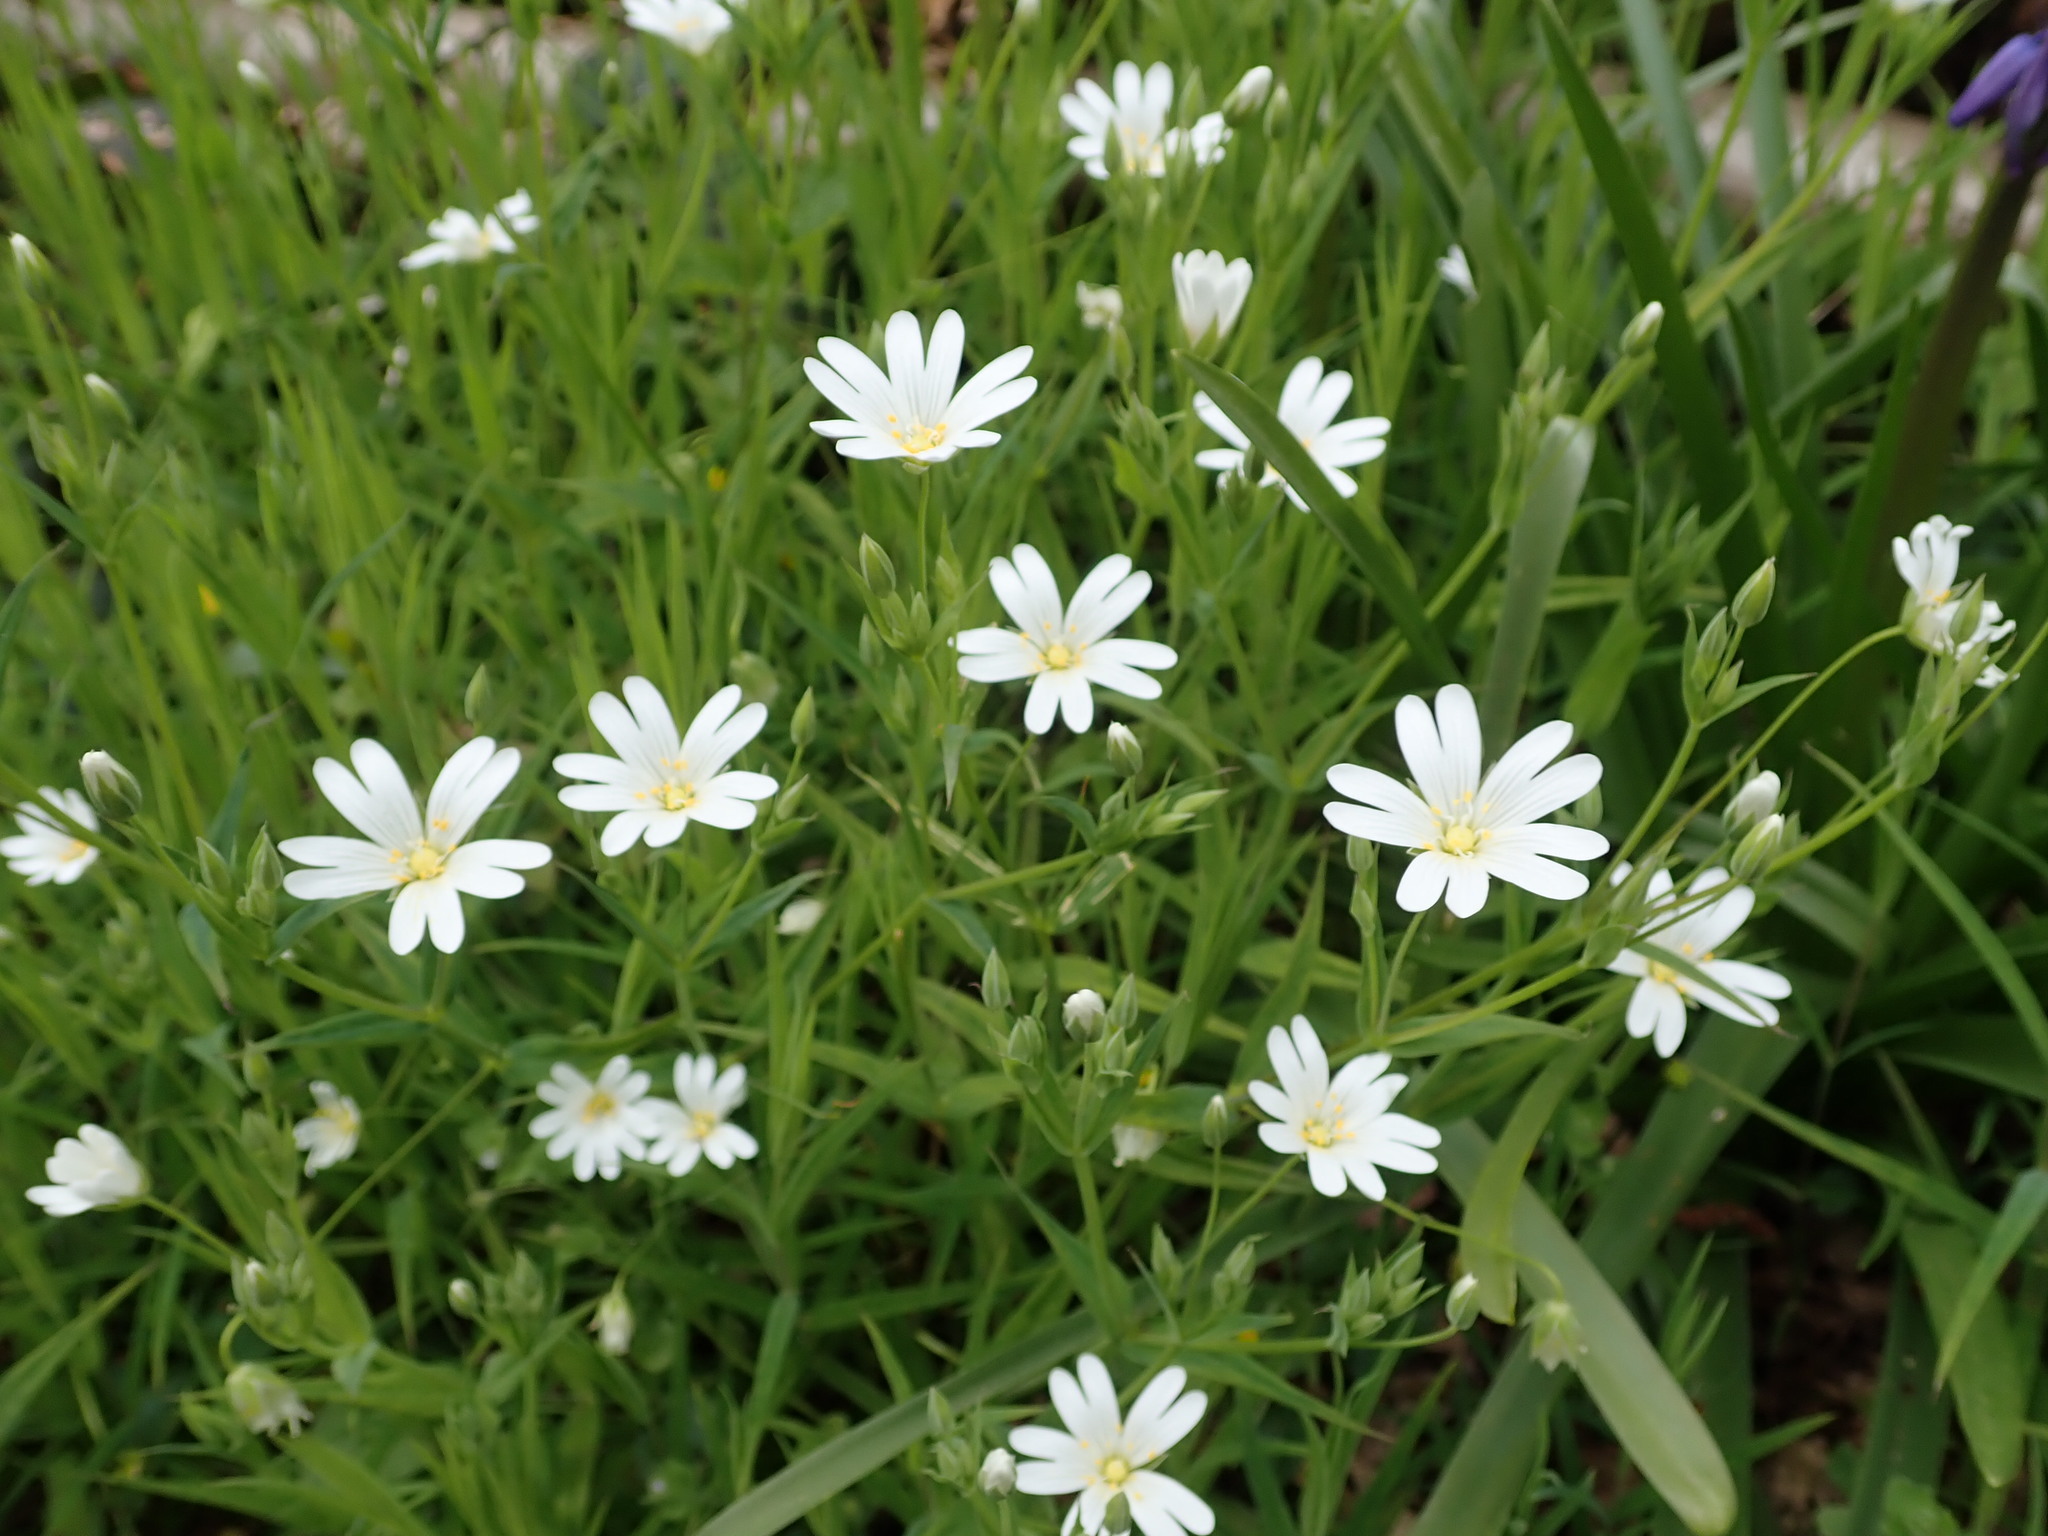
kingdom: Plantae
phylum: Tracheophyta
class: Magnoliopsida
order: Caryophyllales
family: Caryophyllaceae
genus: Rabelera
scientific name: Rabelera holostea
